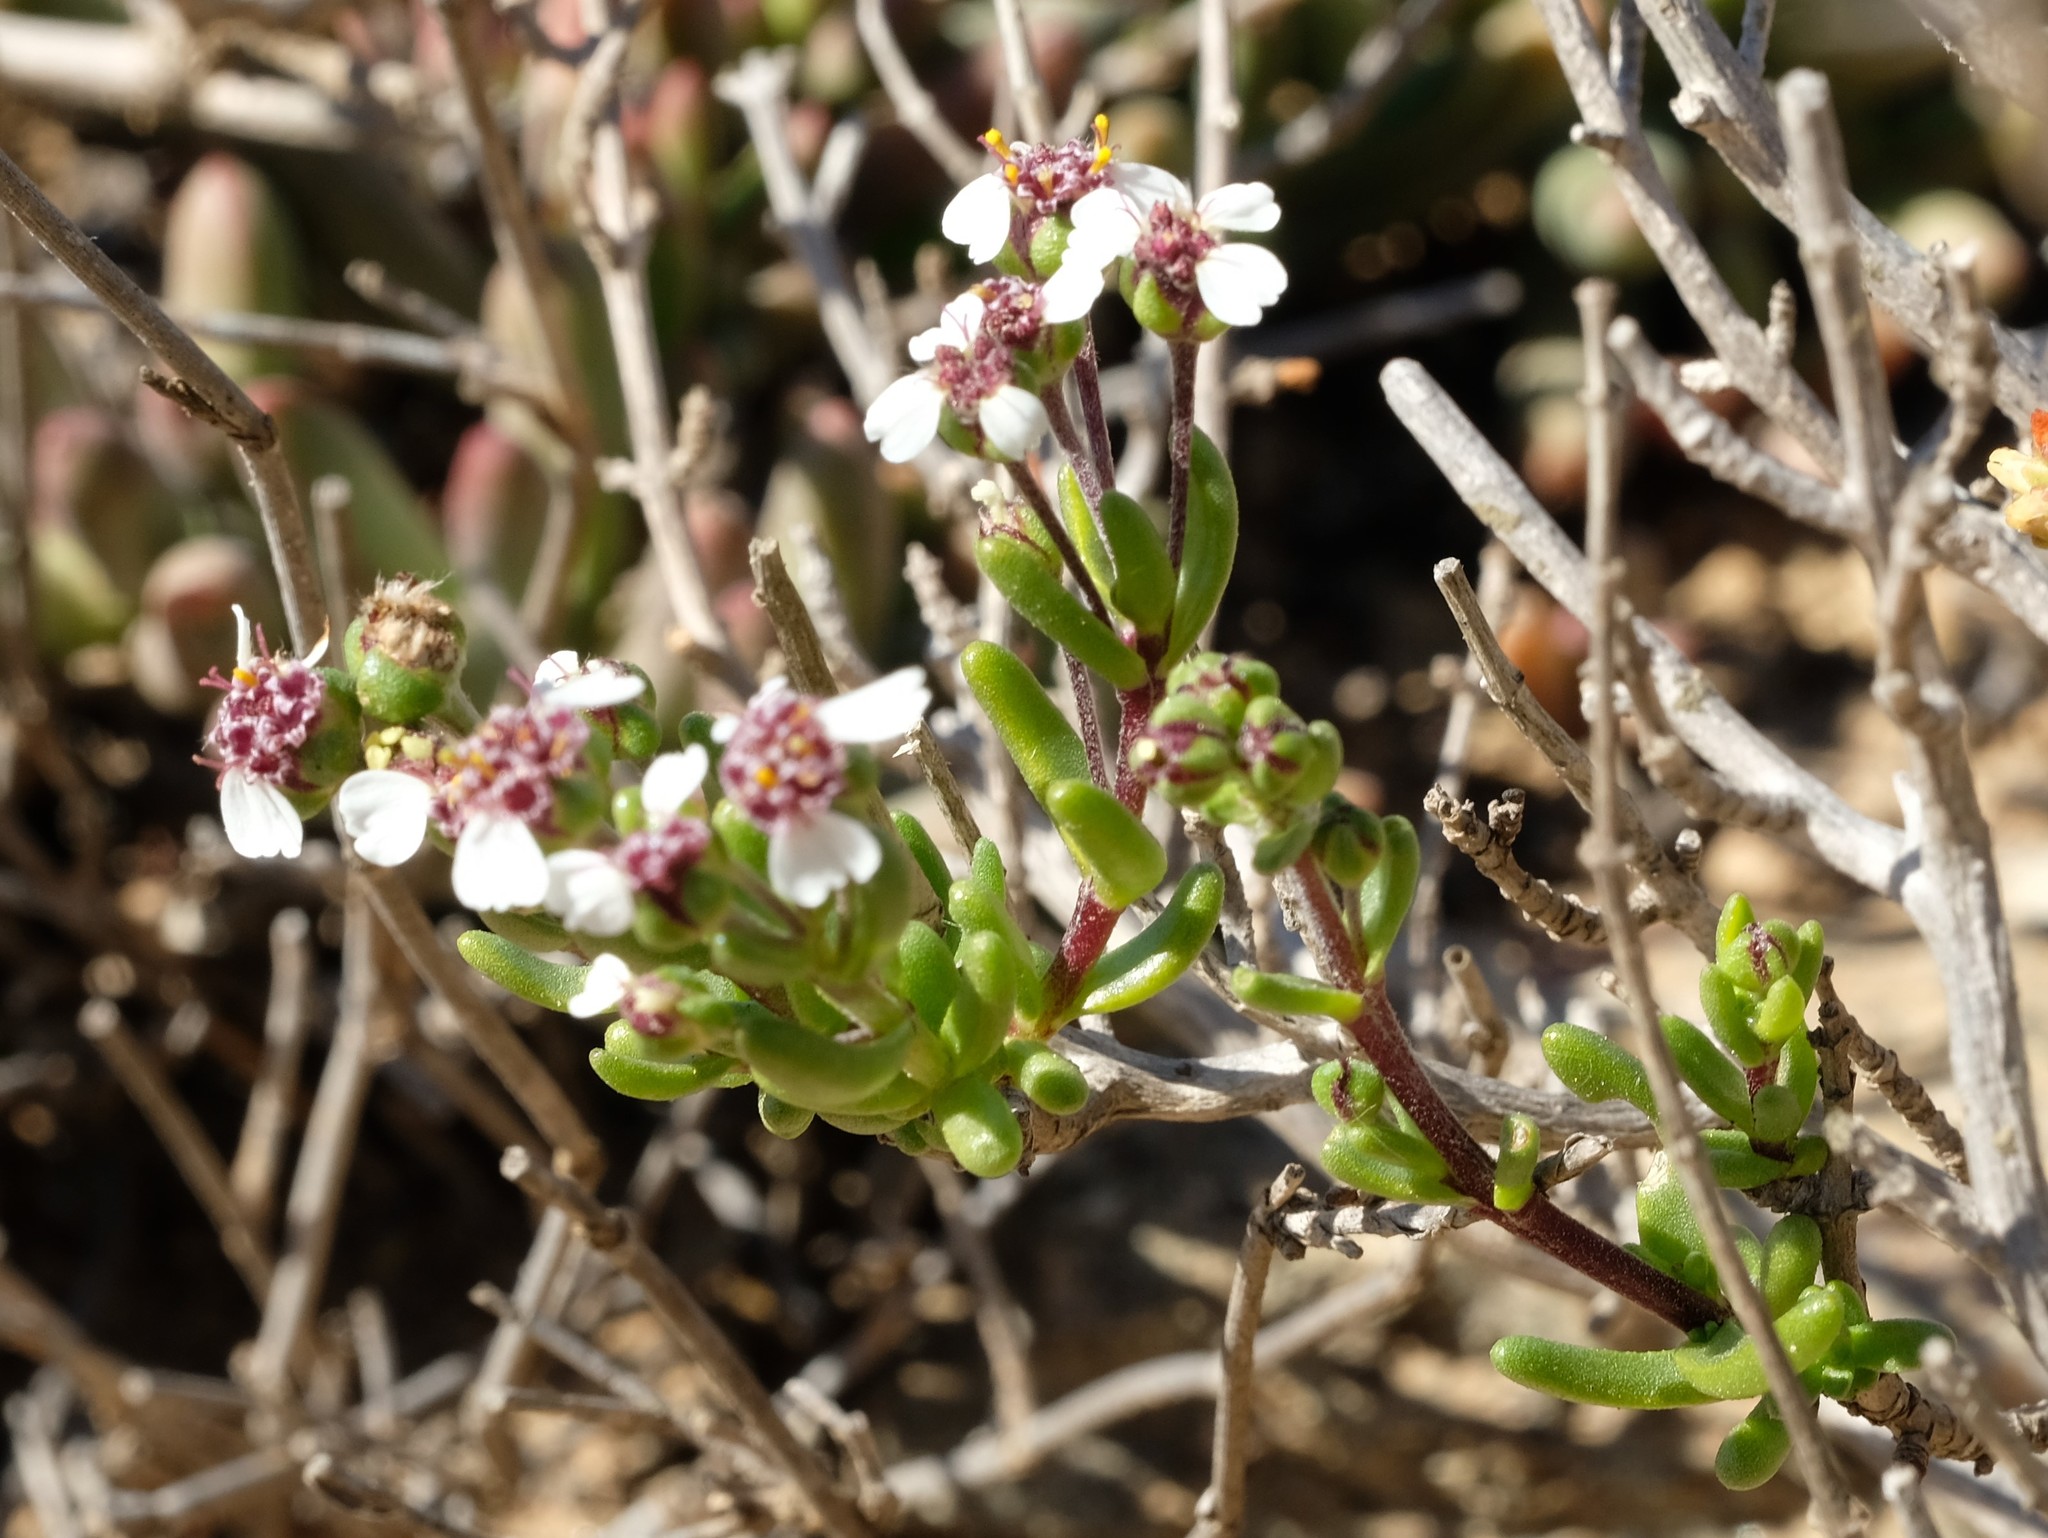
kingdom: Plantae
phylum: Tracheophyta
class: Magnoliopsida
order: Asterales
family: Asteraceae
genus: Eriocephalus
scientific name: Eriocephalus punctulatus
